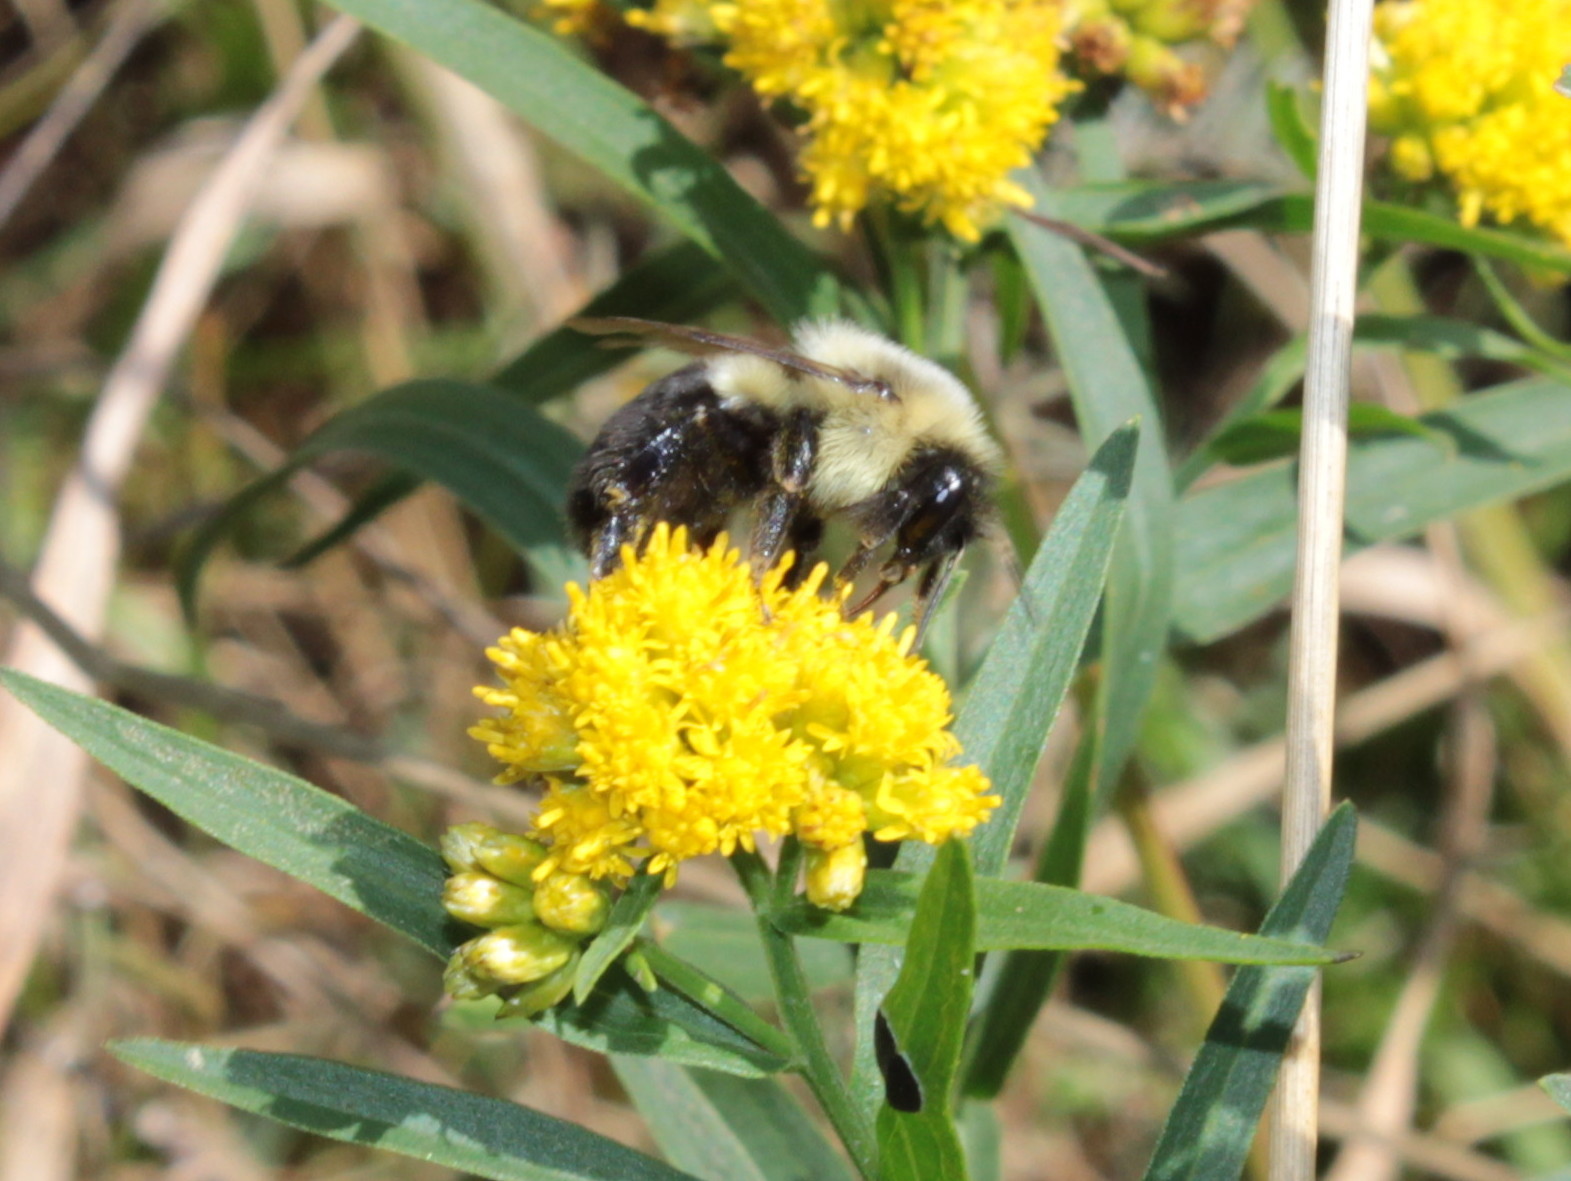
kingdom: Animalia
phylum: Arthropoda
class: Insecta
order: Hymenoptera
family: Apidae
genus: Bombus
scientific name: Bombus impatiens
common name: Common eastern bumble bee
